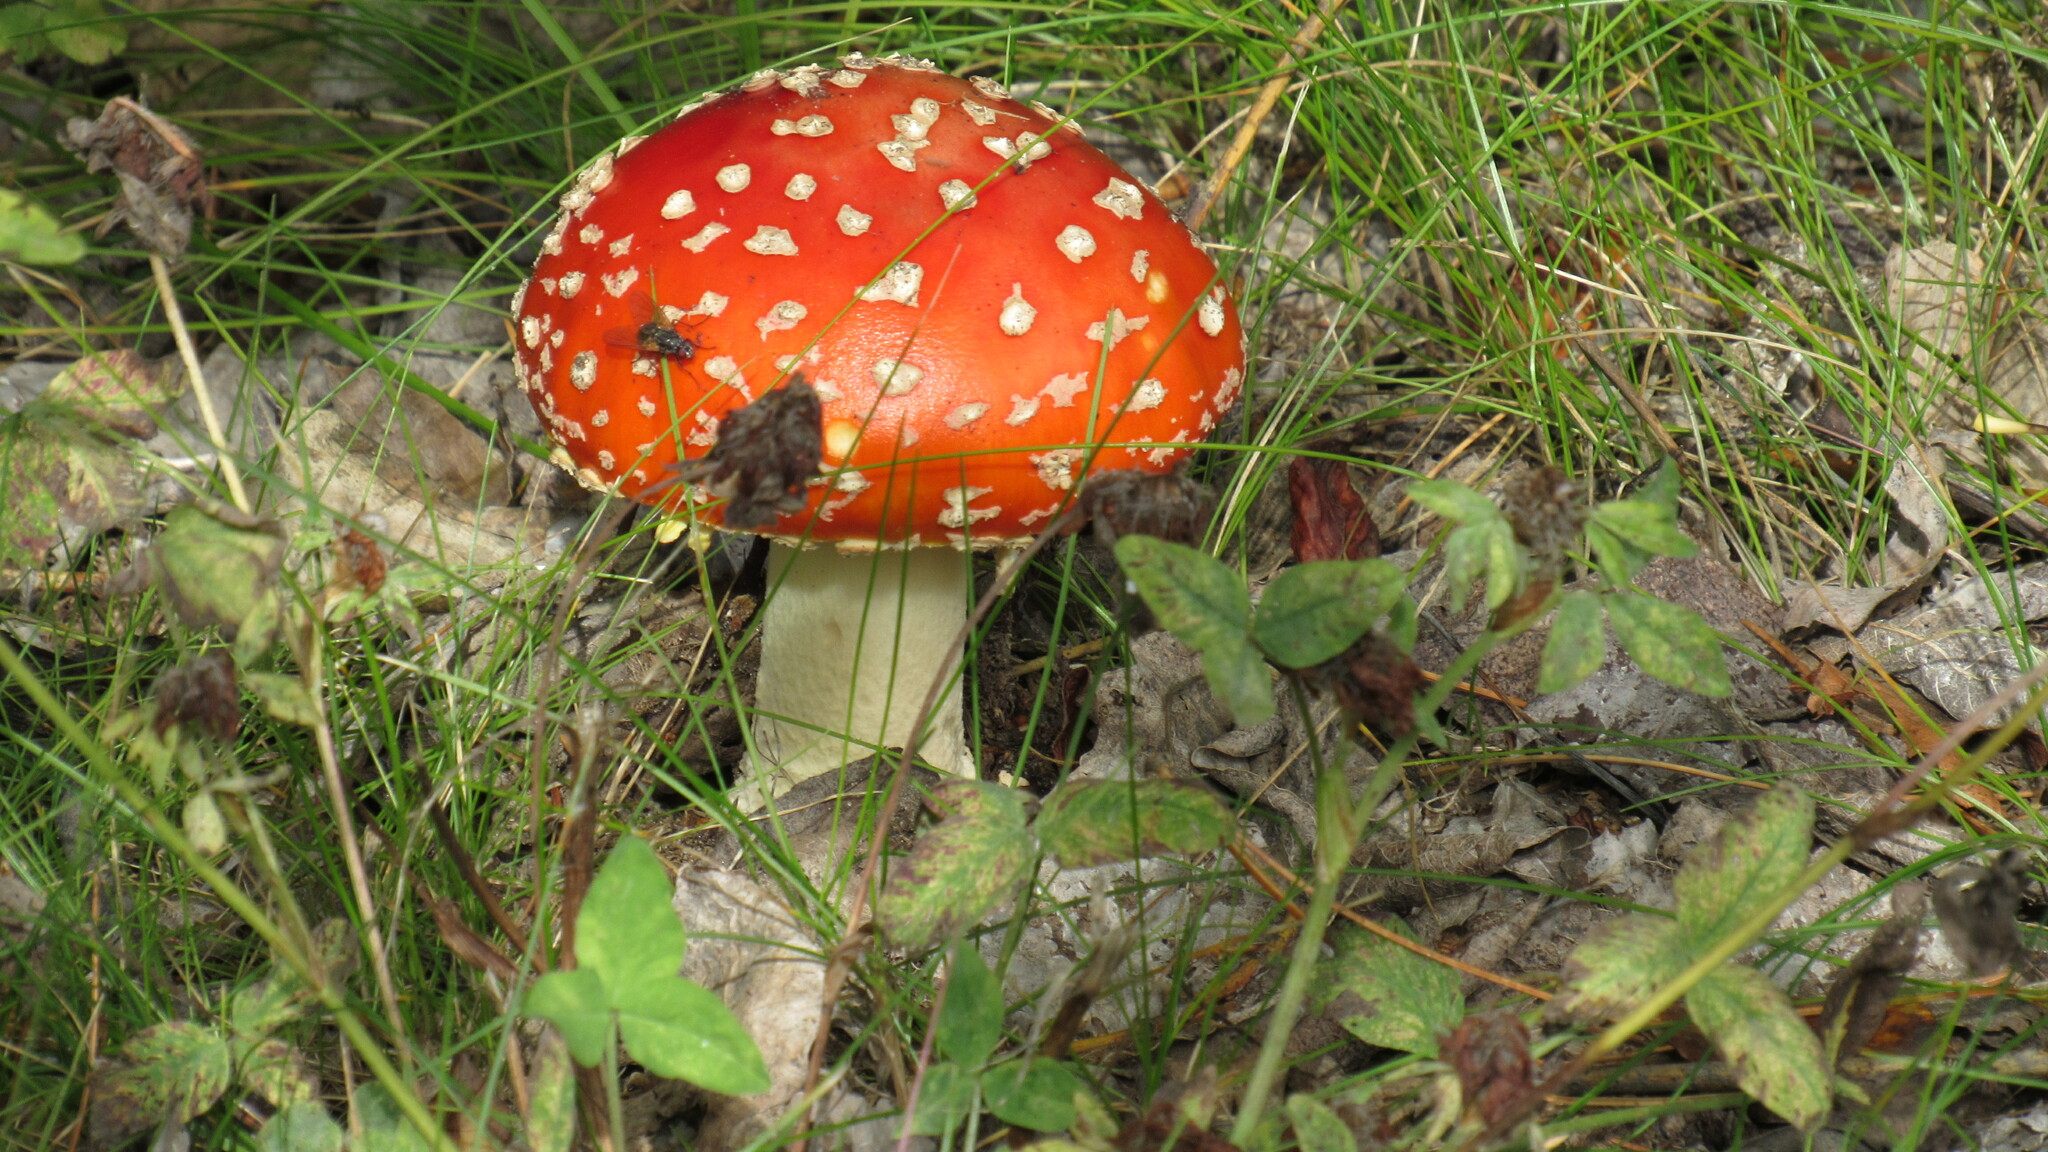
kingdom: Fungi
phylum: Basidiomycota
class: Agaricomycetes
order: Agaricales
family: Amanitaceae
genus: Amanita
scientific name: Amanita muscaria
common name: Fly agaric
